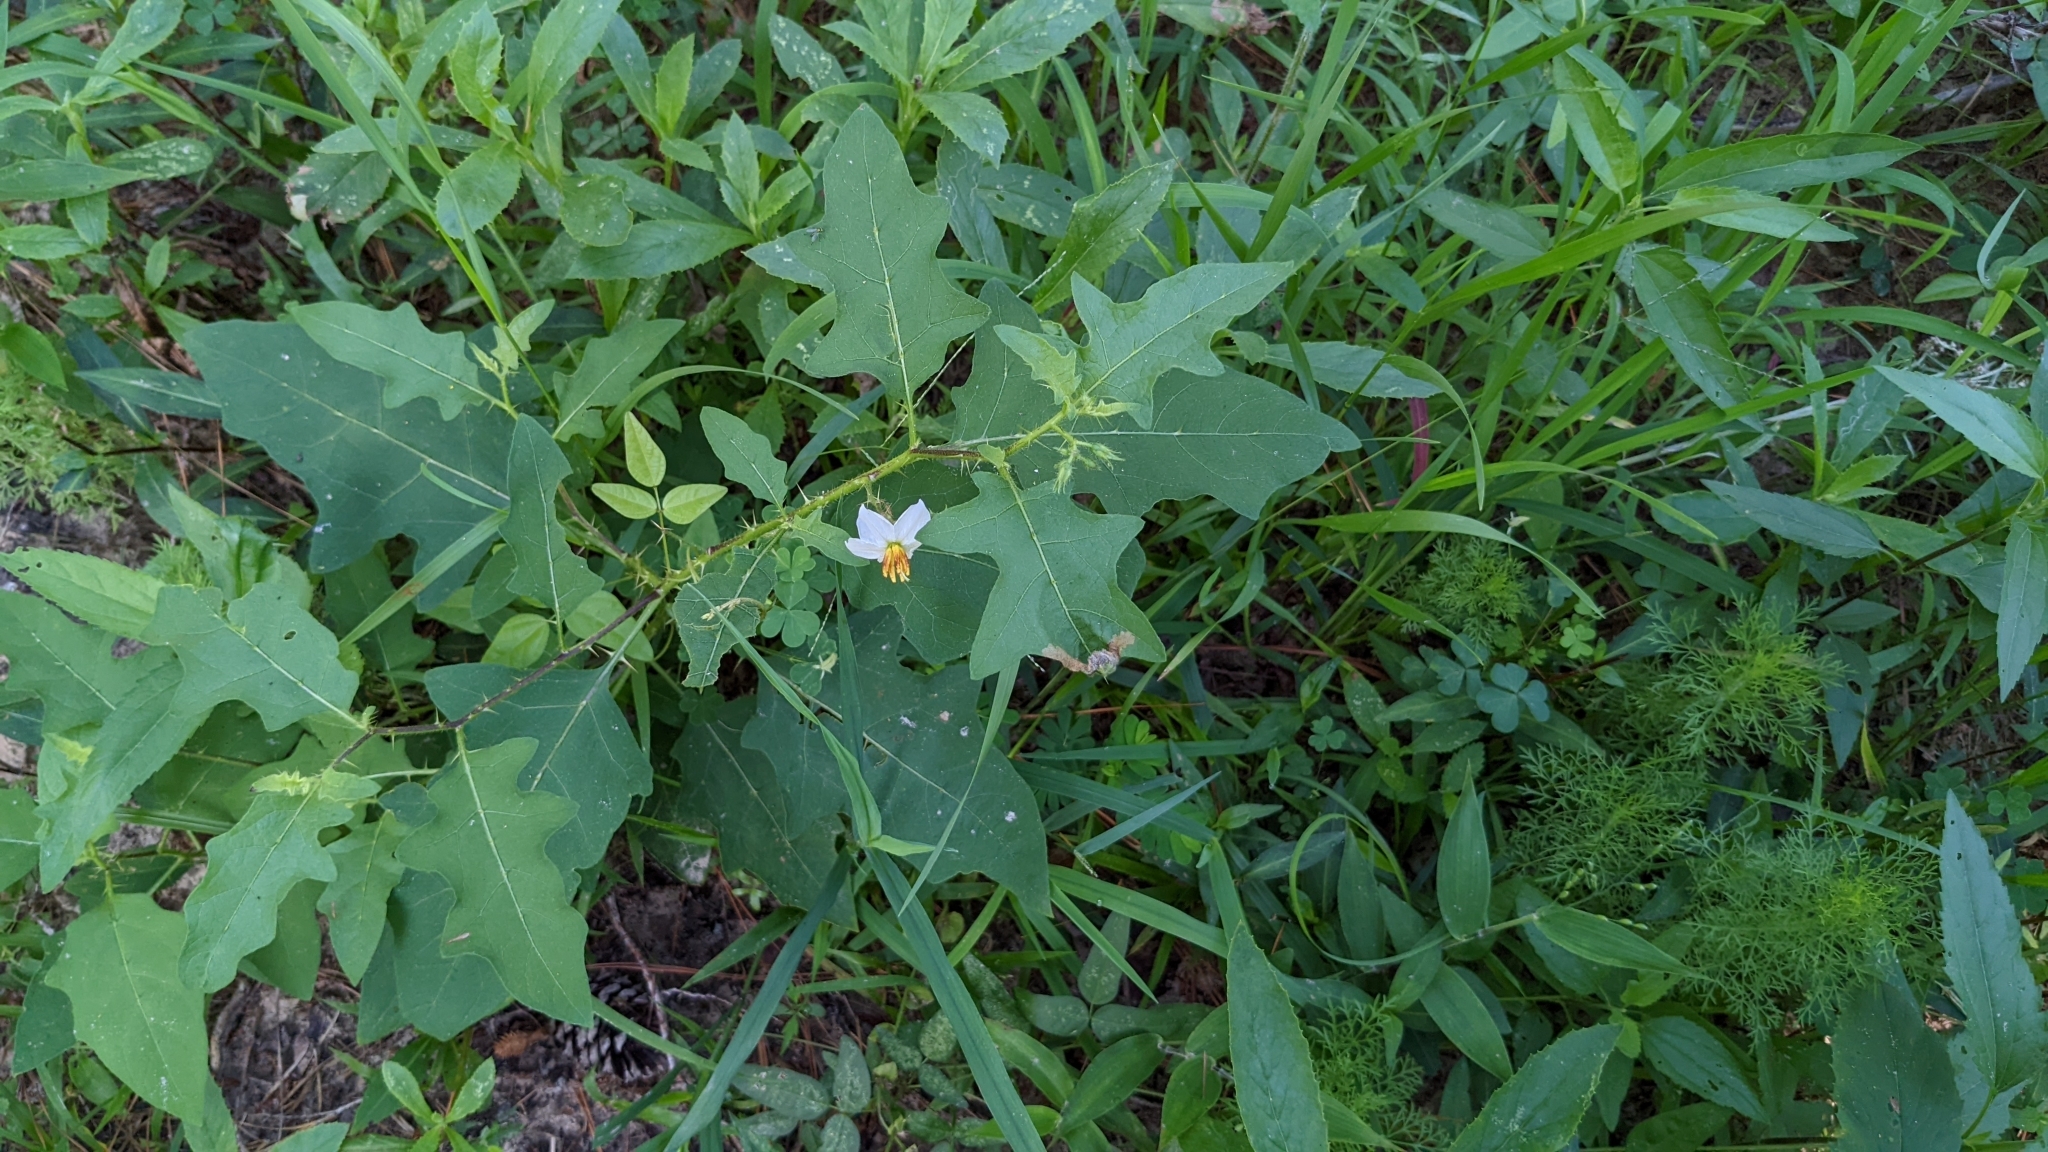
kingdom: Plantae
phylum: Tracheophyta
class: Magnoliopsida
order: Solanales
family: Solanaceae
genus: Solanum
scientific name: Solanum carolinense
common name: Horse-nettle
